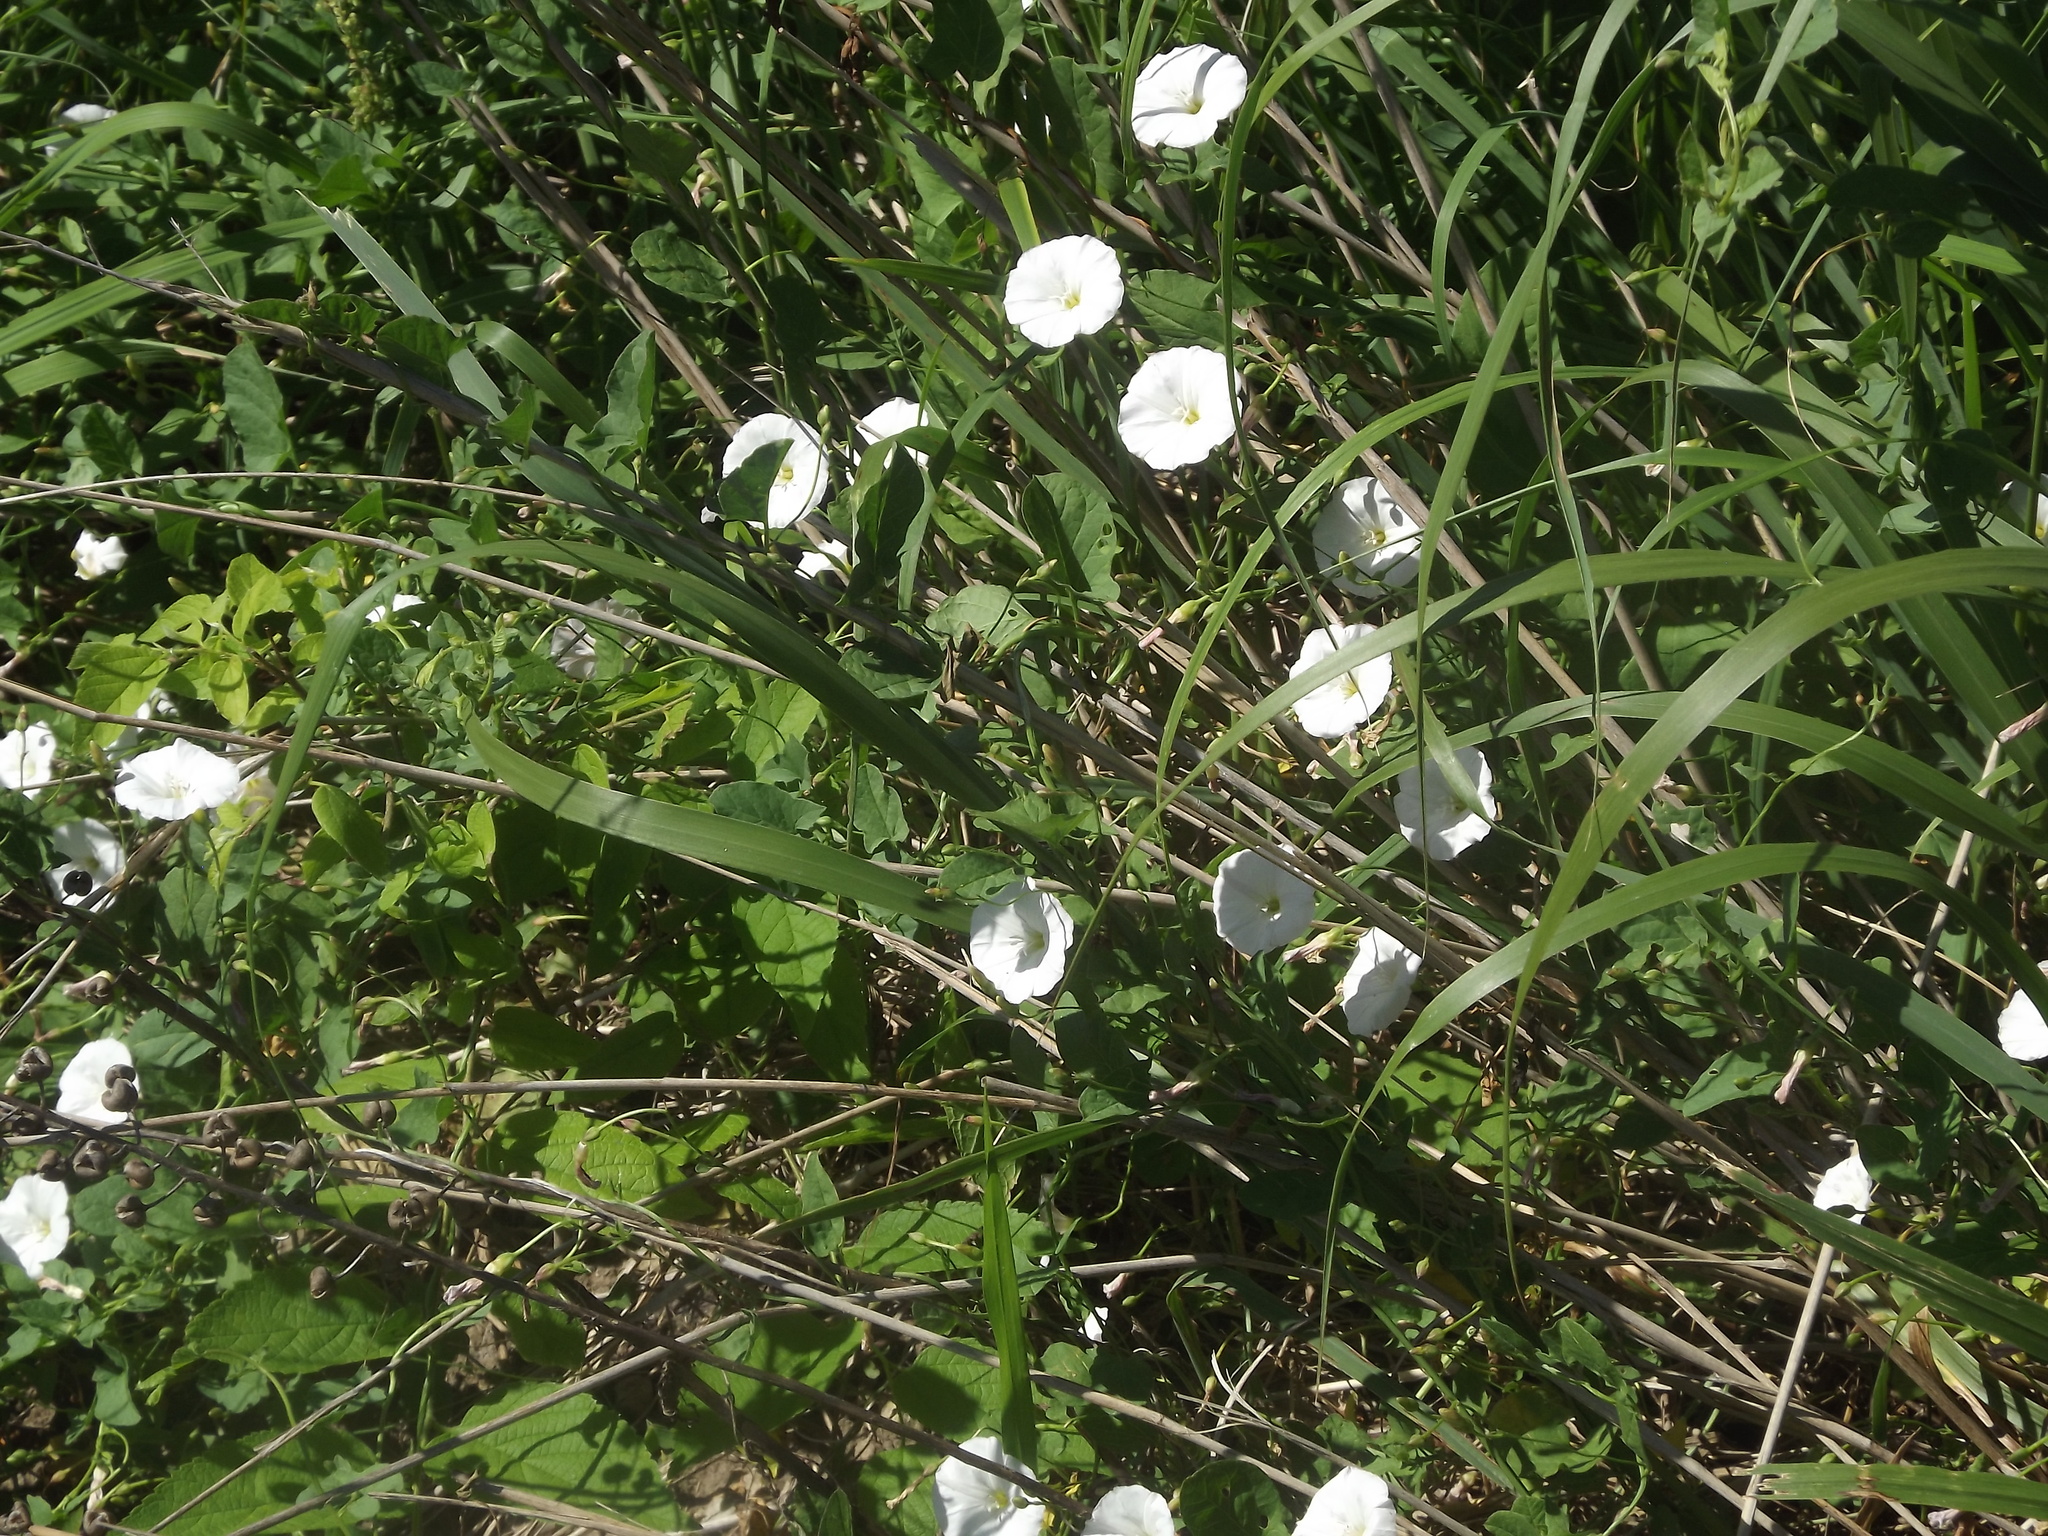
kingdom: Plantae
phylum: Tracheophyta
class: Magnoliopsida
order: Solanales
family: Convolvulaceae
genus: Convolvulus
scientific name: Convolvulus arvensis
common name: Field bindweed
